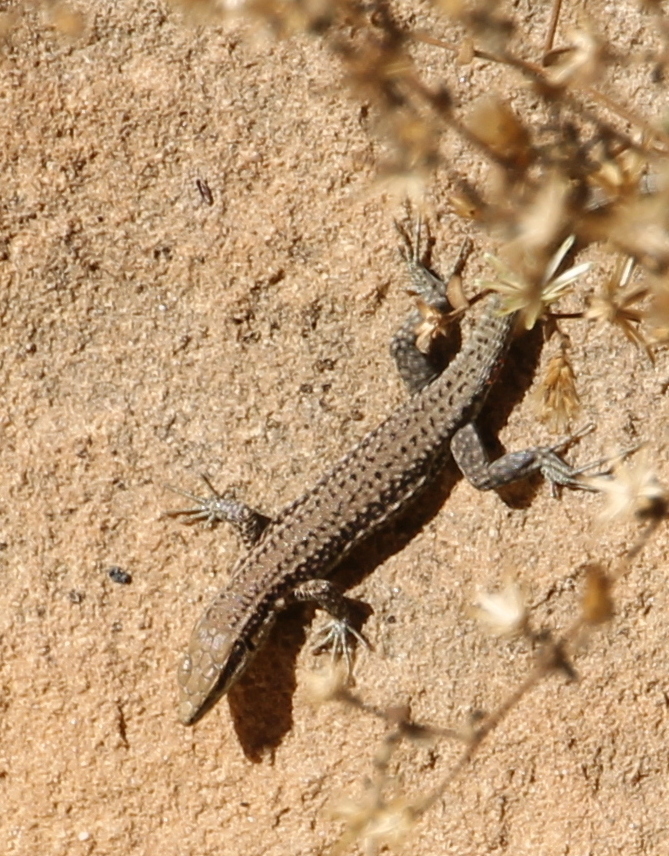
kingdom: Animalia
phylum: Chordata
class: Squamata
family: Lacertidae
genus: Phoenicolacerta
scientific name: Phoenicolacerta kulzeri
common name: Kulzer’s rock lizard
